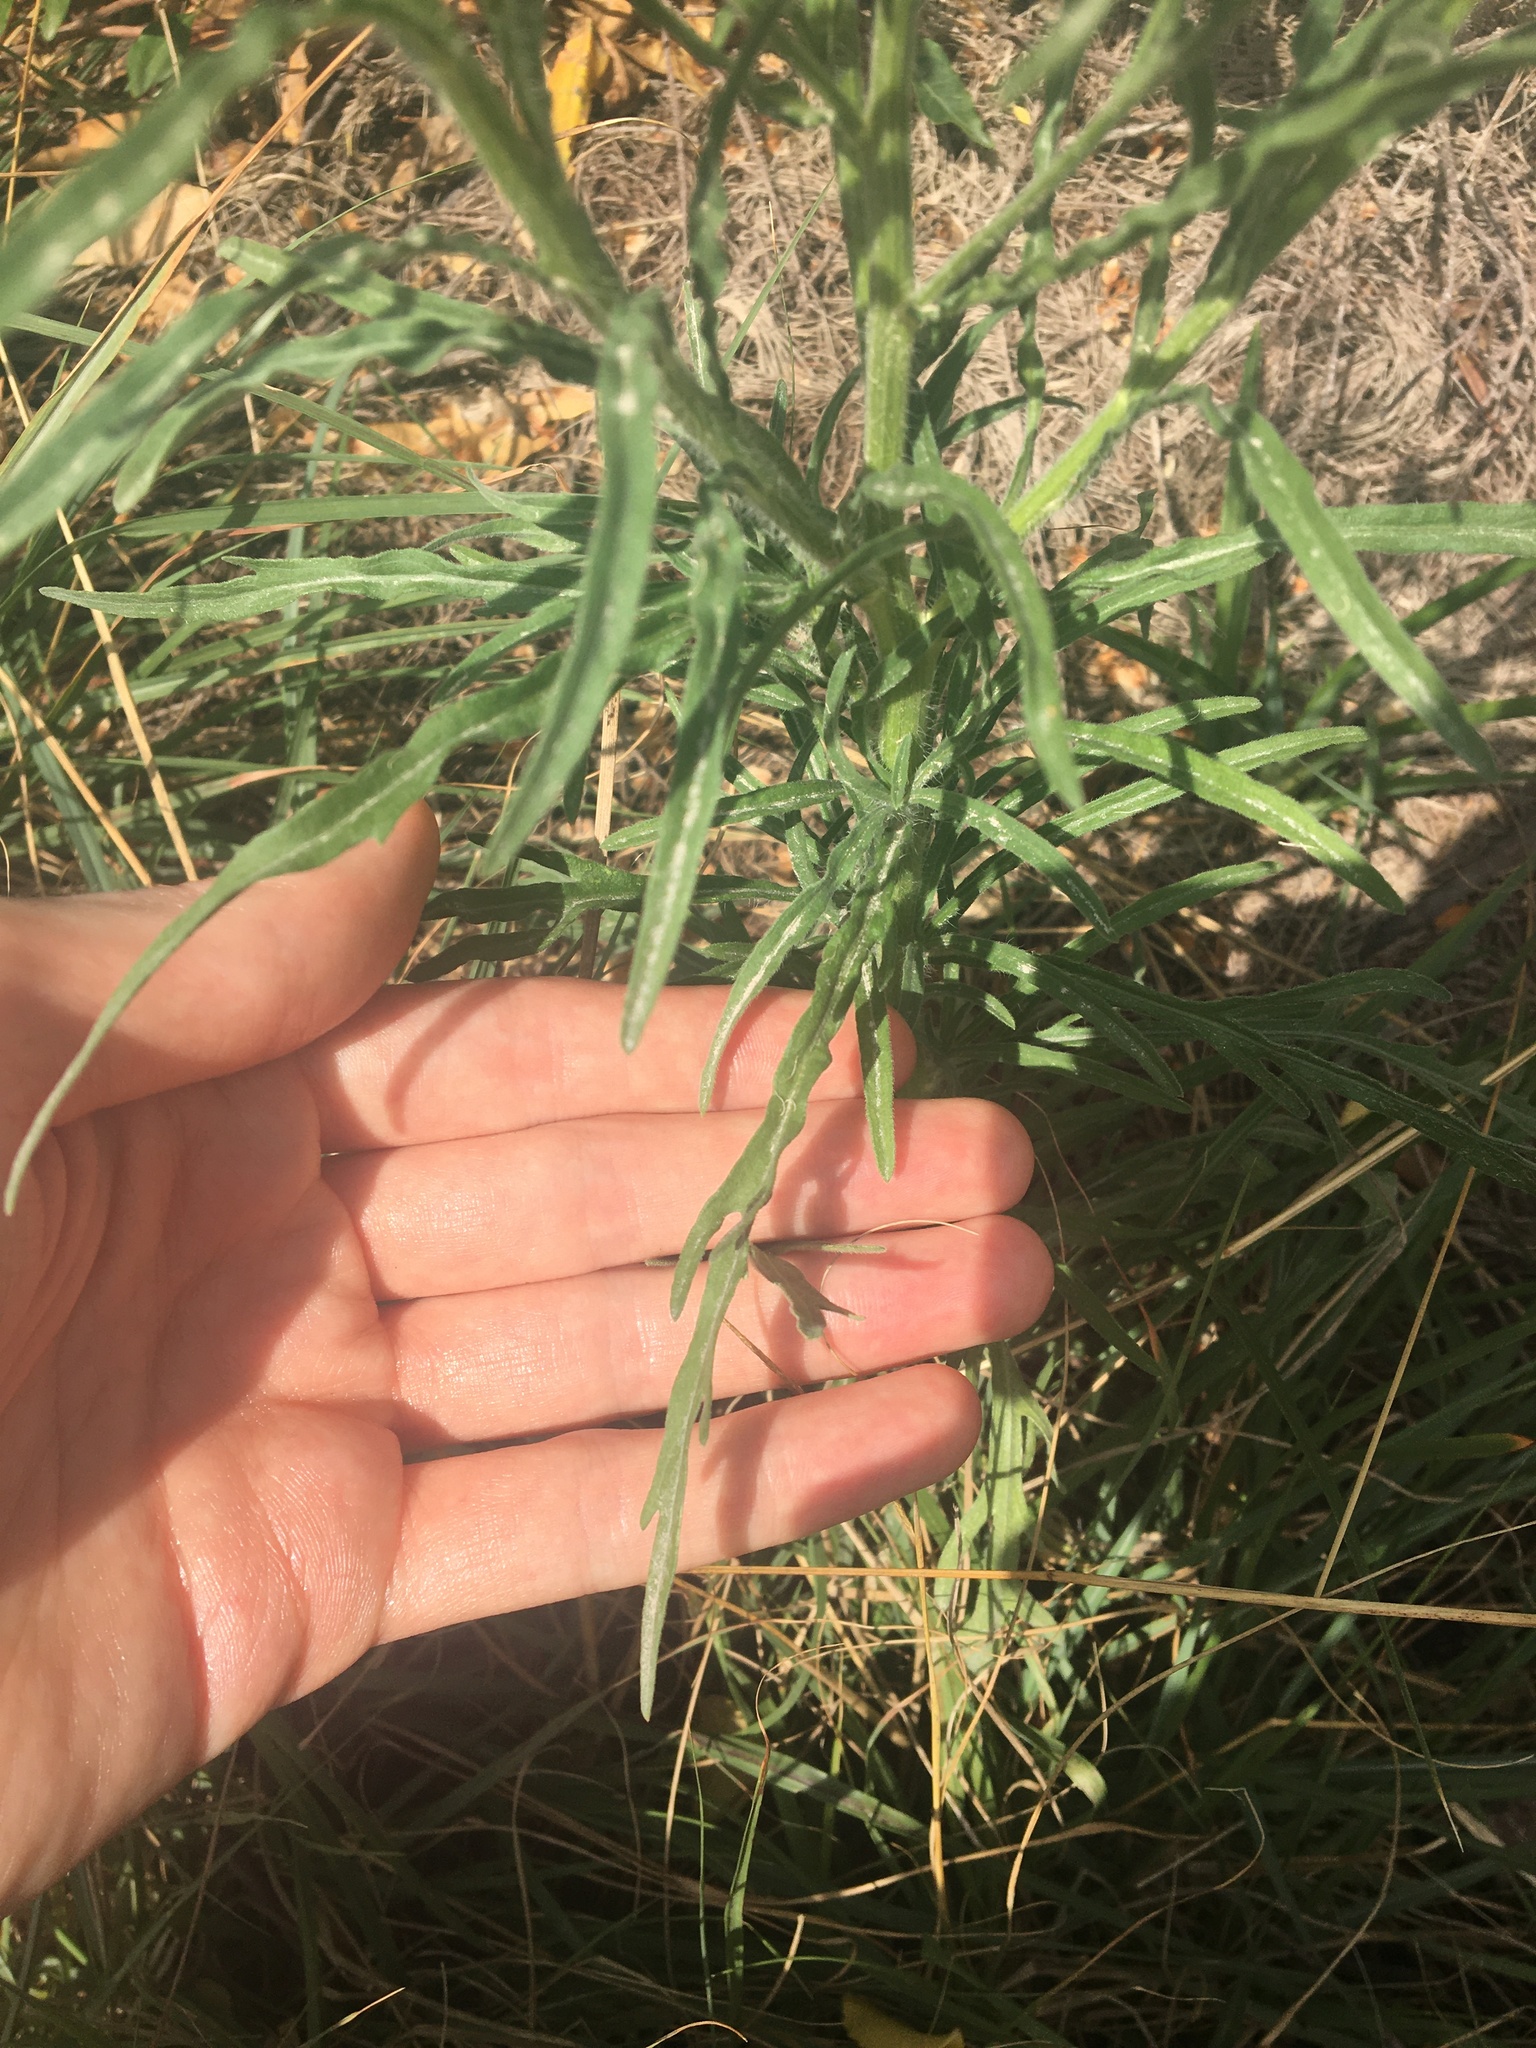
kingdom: Plantae
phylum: Tracheophyta
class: Magnoliopsida
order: Asterales
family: Asteraceae
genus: Erigeron
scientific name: Erigeron bonariensis
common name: Argentine fleabane
